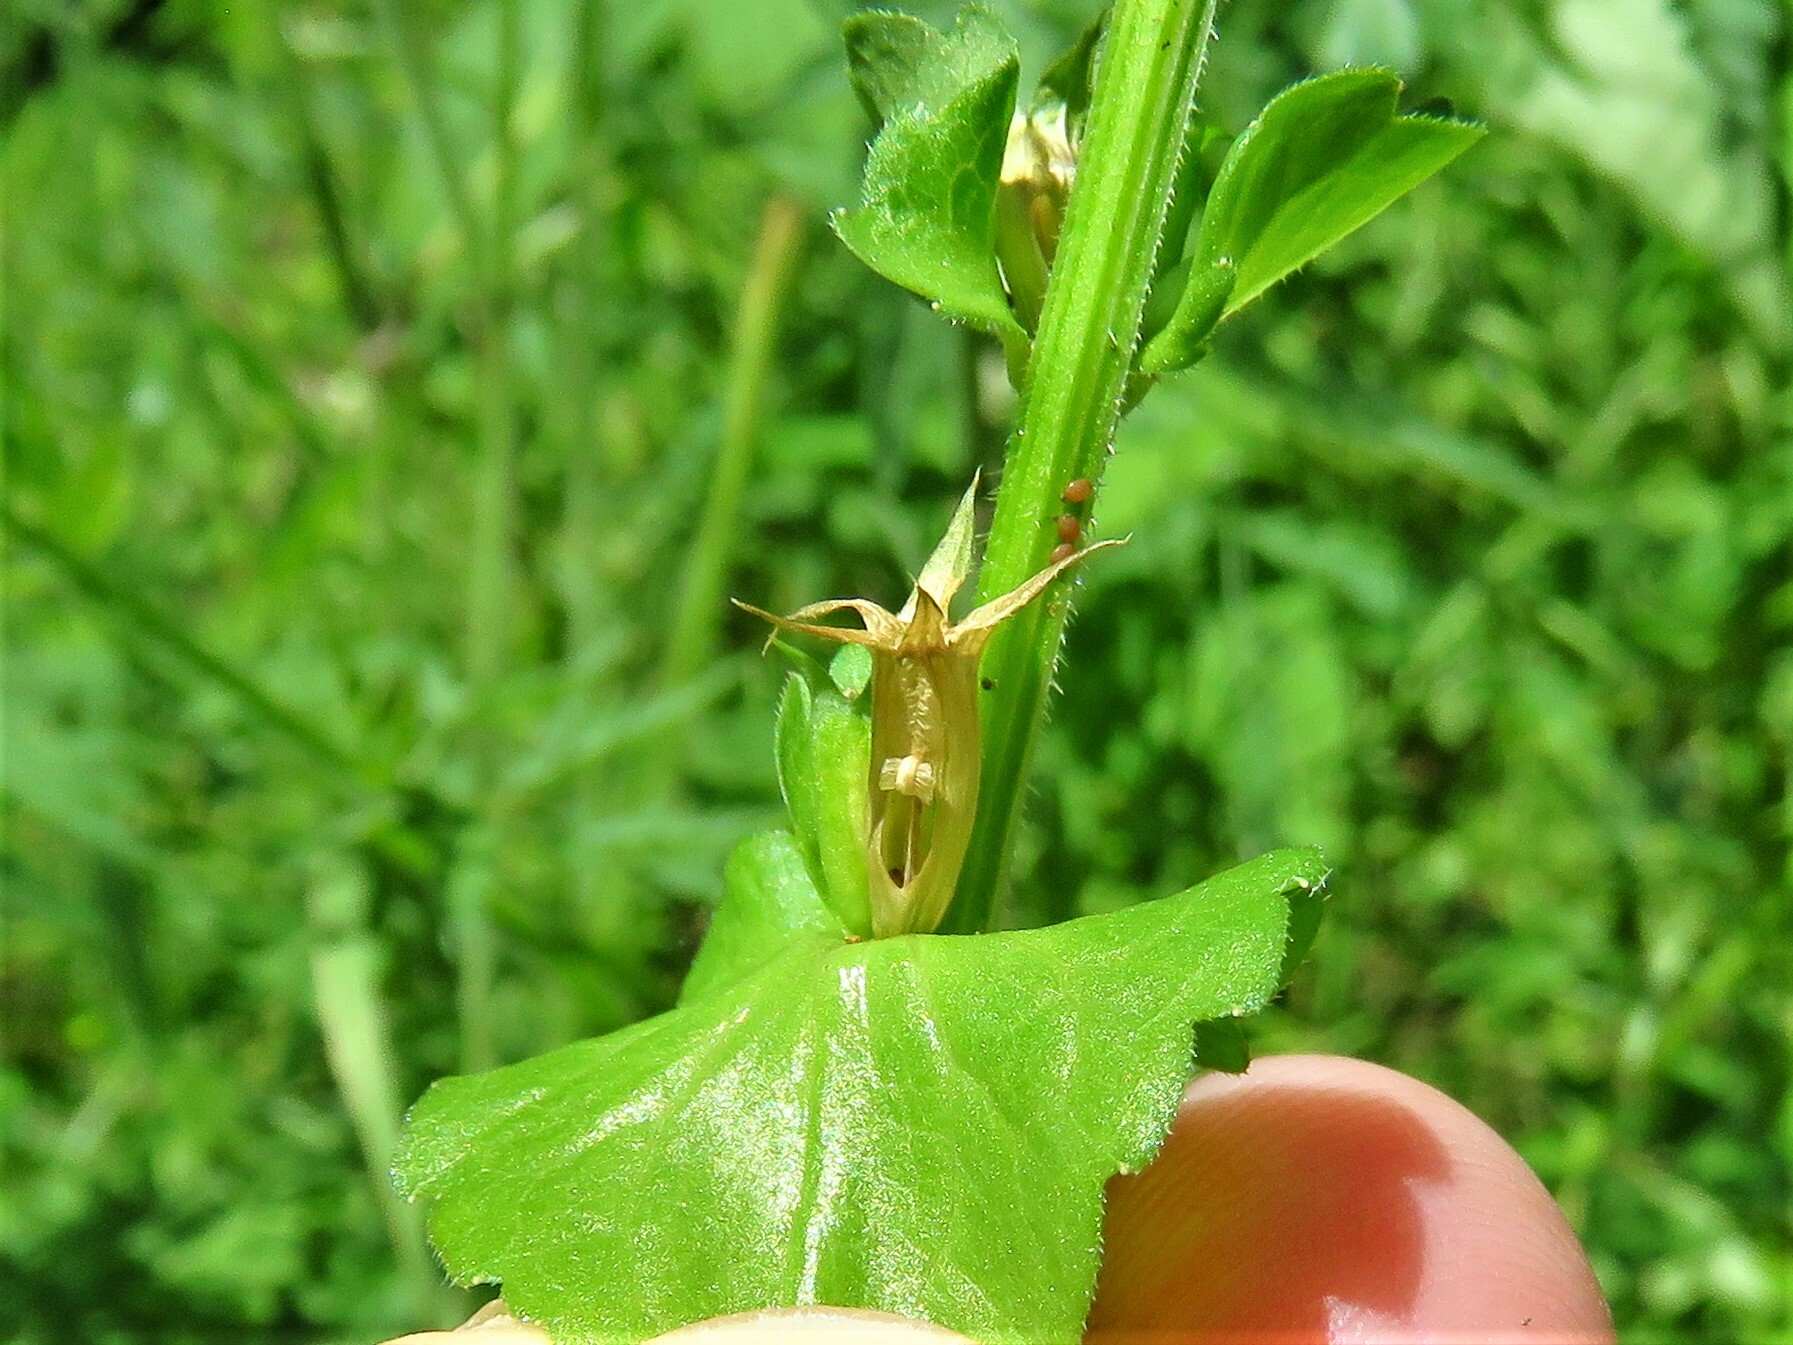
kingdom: Plantae
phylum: Tracheophyta
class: Magnoliopsida
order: Asterales
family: Campanulaceae
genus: Triodanis
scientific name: Triodanis perfoliata
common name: Clasping venus' looking-glass
